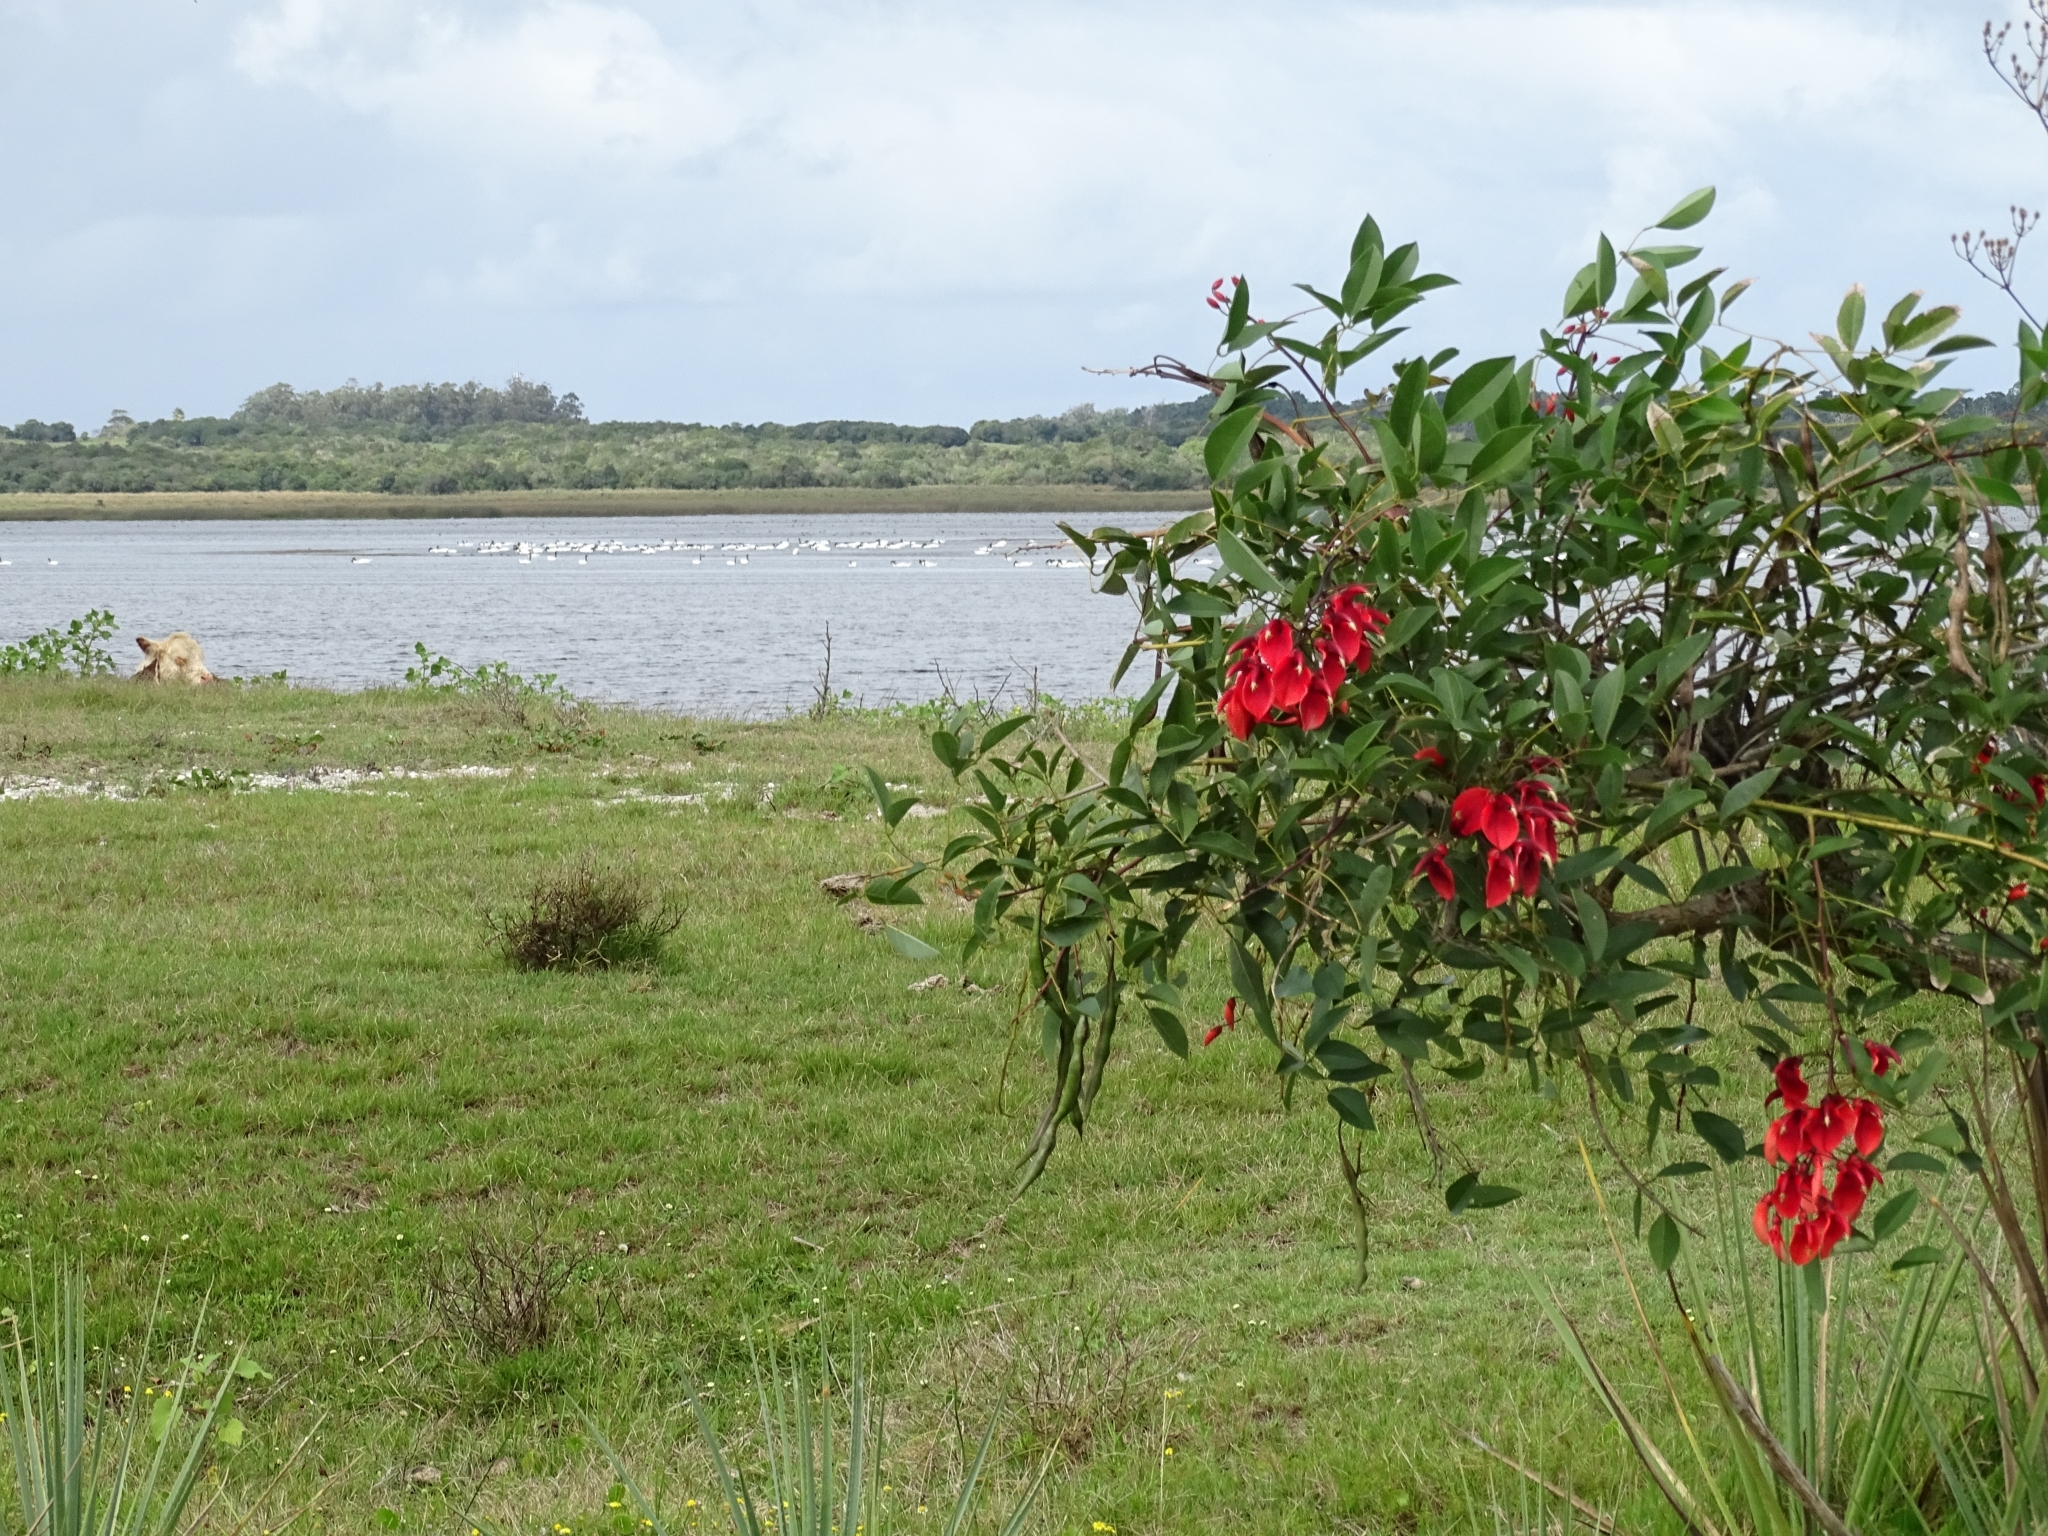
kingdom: Plantae
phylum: Tracheophyta
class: Magnoliopsida
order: Fabales
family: Fabaceae
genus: Erythrina
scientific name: Erythrina crista-galli
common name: Cockspur coral tree
